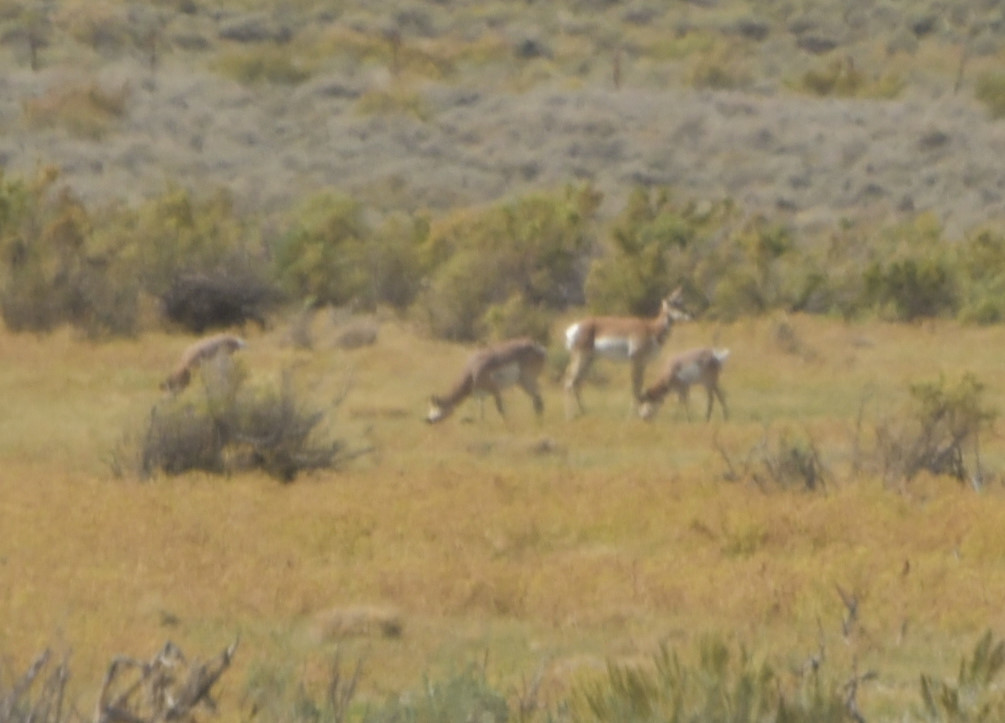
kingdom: Animalia
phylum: Chordata
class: Mammalia
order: Artiodactyla
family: Antilocapridae
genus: Antilocapra
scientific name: Antilocapra americana
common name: Pronghorn
